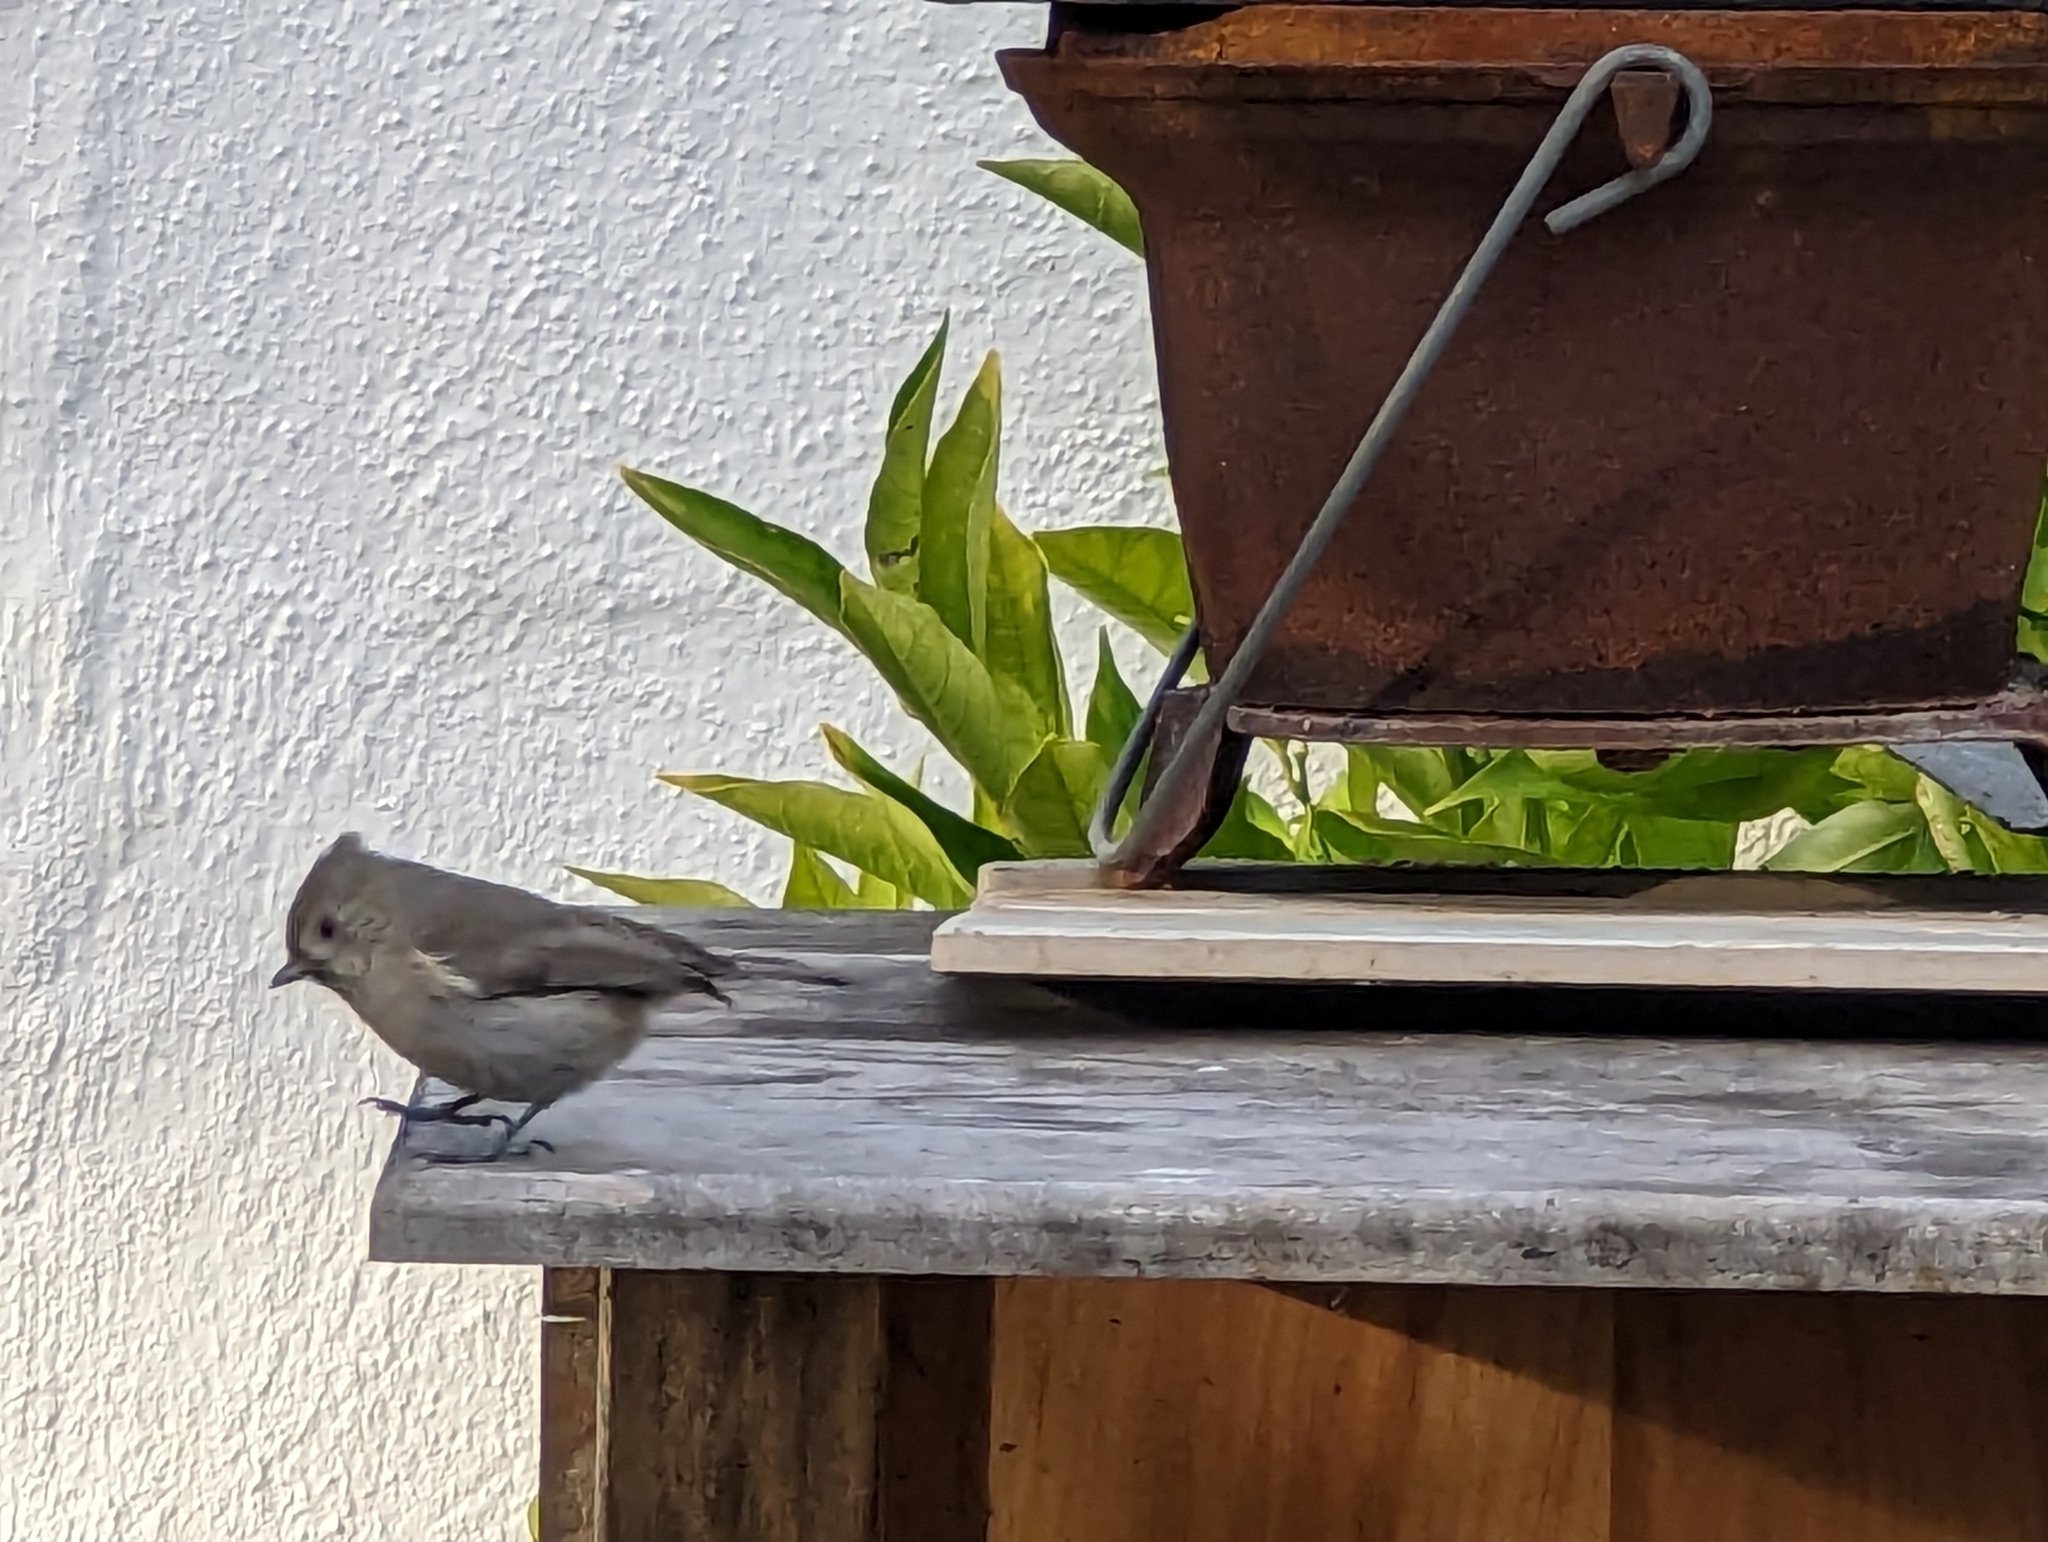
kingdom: Animalia
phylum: Chordata
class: Aves
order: Passeriformes
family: Paridae
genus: Baeolophus
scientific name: Baeolophus inornatus
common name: Oak titmouse
